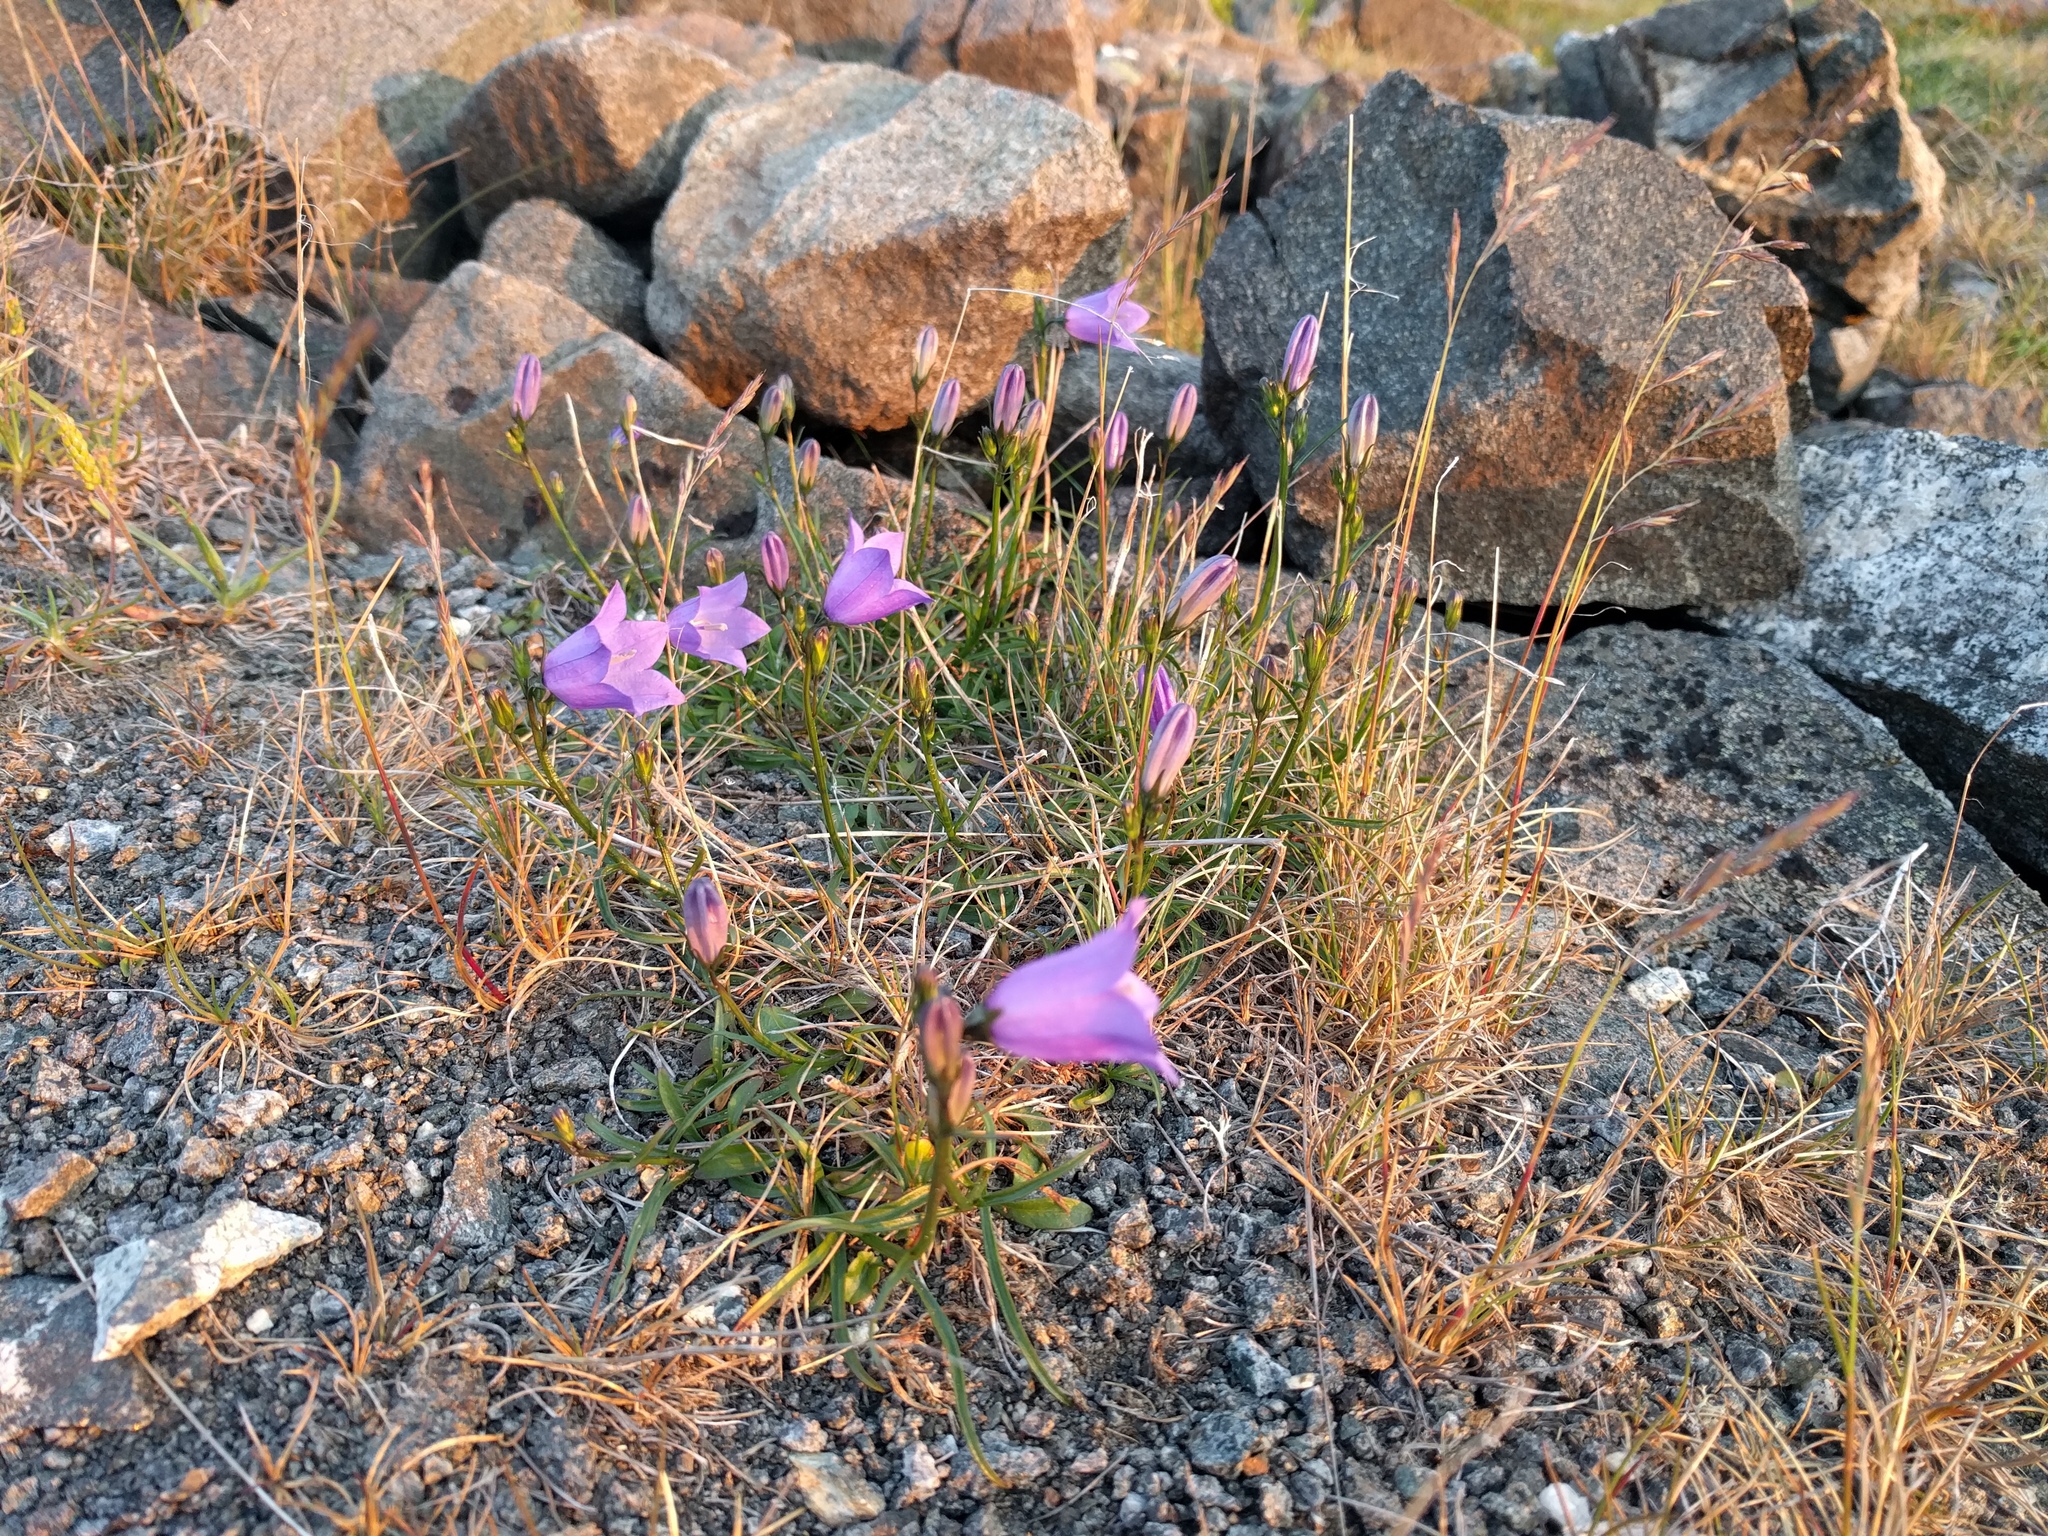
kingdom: Plantae
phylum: Tracheophyta
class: Magnoliopsida
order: Asterales
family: Campanulaceae
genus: Campanula
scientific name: Campanula giesekiana
